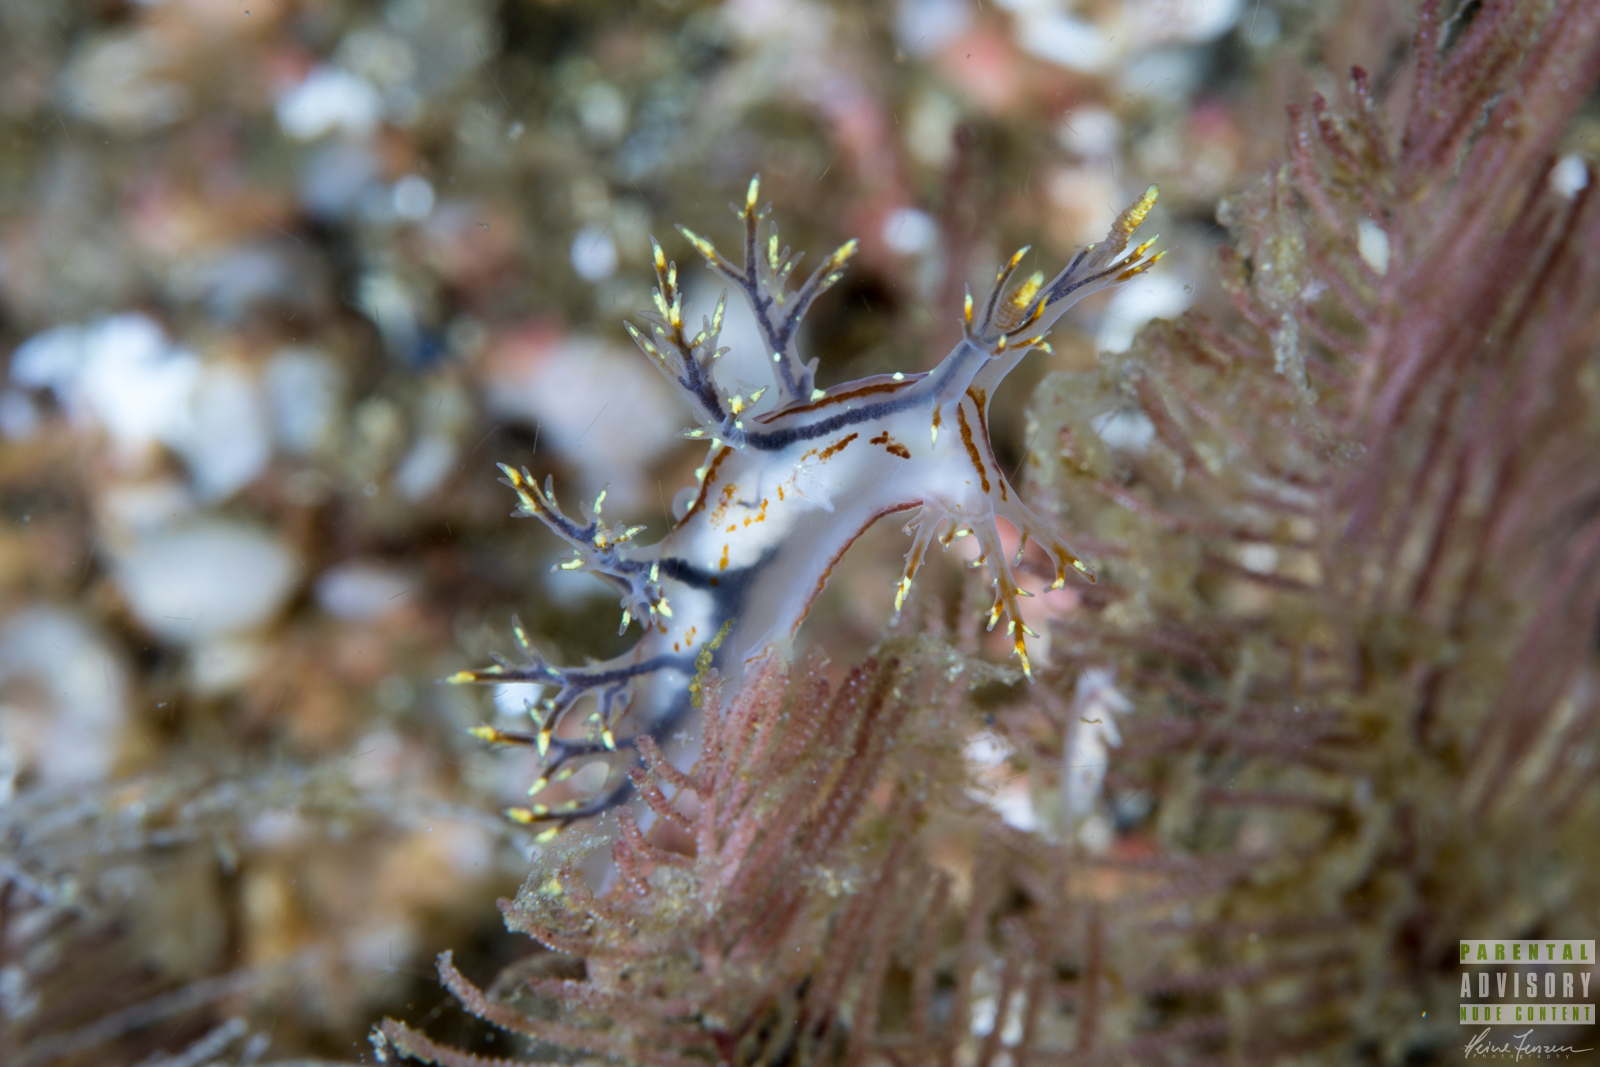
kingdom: Animalia
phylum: Mollusca
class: Gastropoda
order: Nudibranchia
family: Dendronotidae
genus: Dendronotus
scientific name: Dendronotus yrjargul
